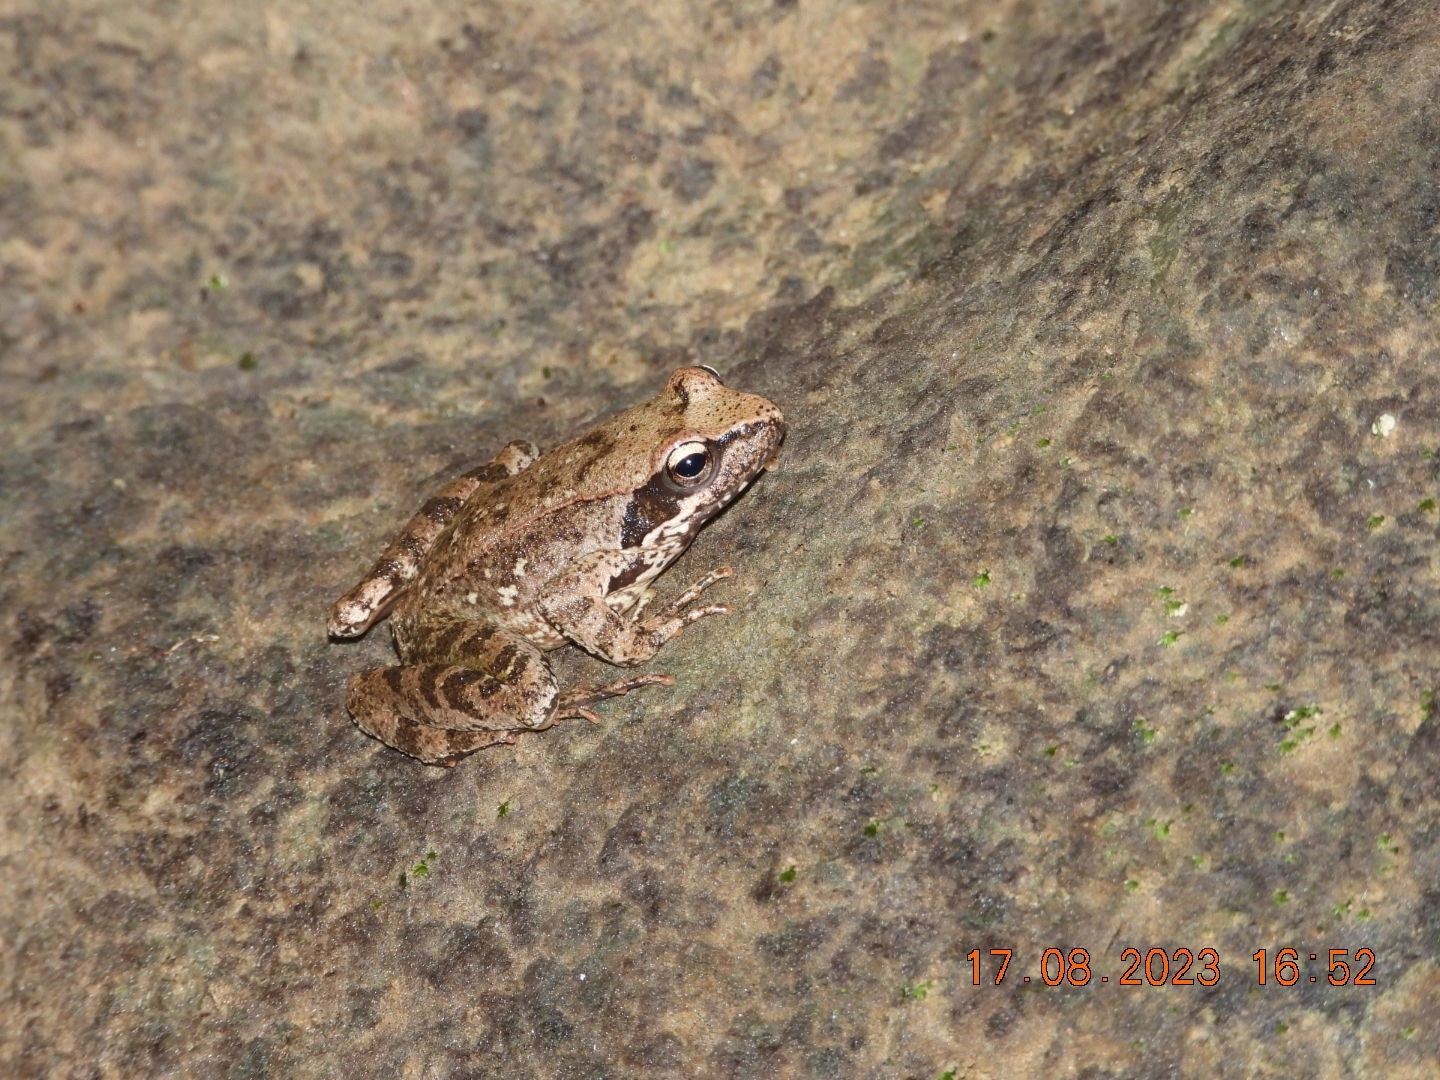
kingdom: Animalia
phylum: Chordata
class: Amphibia
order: Anura
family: Ranidae
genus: Rana
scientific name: Rana italica
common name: Italian stream frog
